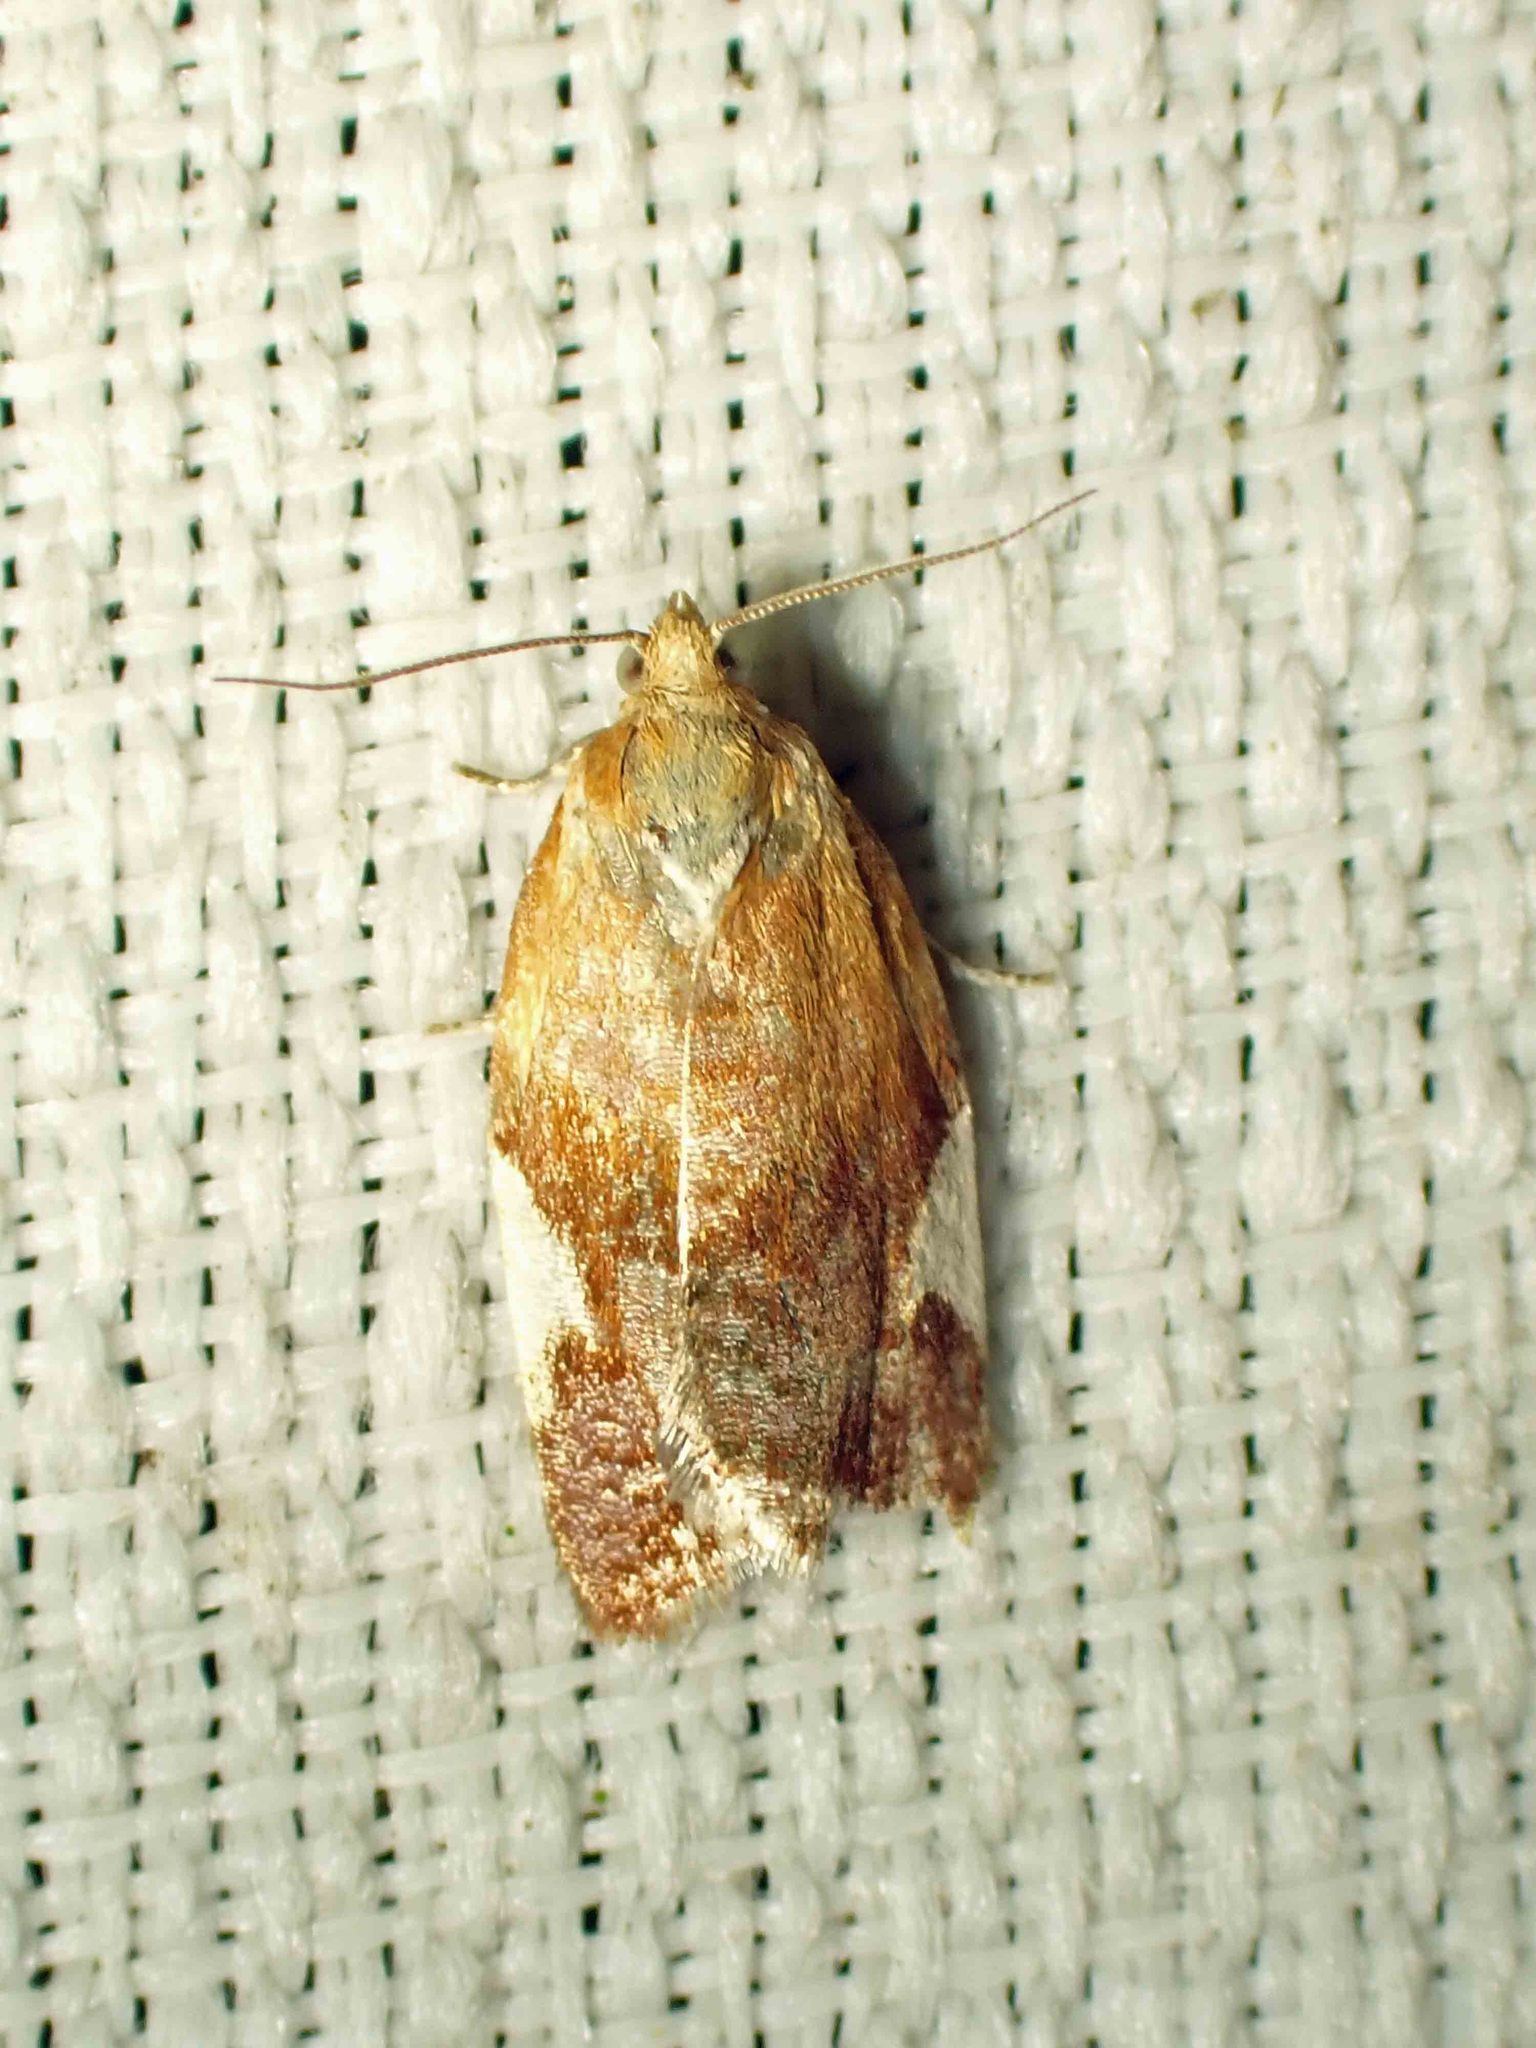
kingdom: Animalia
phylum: Arthropoda
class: Insecta
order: Lepidoptera
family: Tortricidae
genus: Clepsis
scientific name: Clepsis persicana
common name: White triangle tortrix
